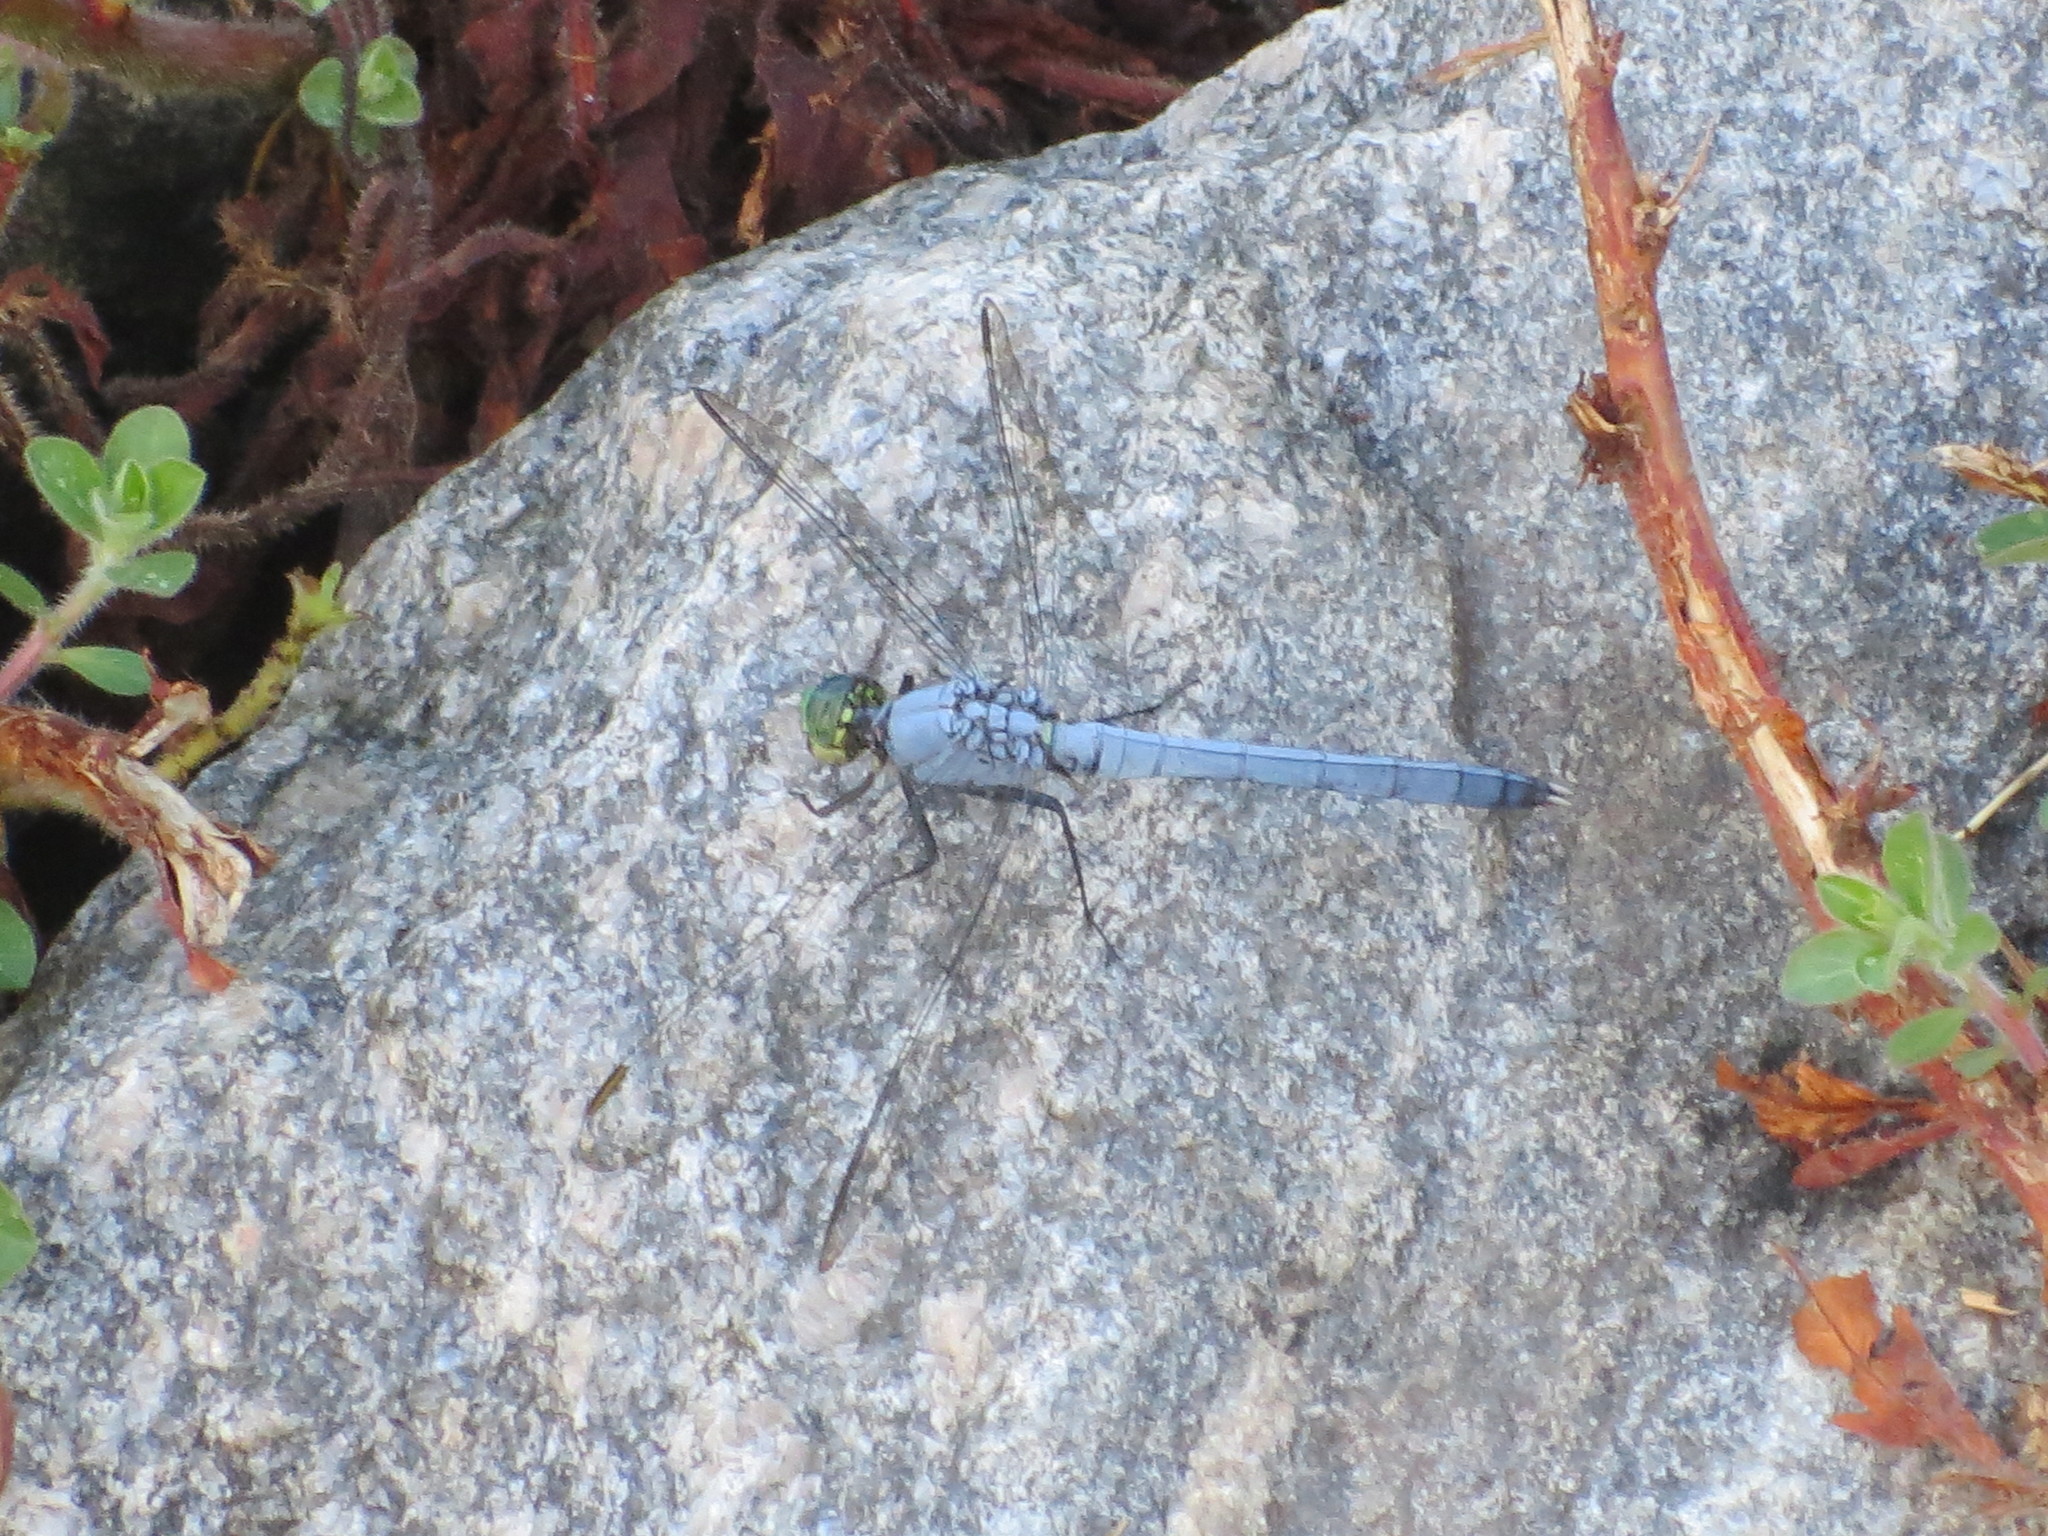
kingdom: Animalia
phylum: Arthropoda
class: Insecta
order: Odonata
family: Libellulidae
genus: Erythemis
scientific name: Erythemis simplicicollis
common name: Eastern pondhawk
